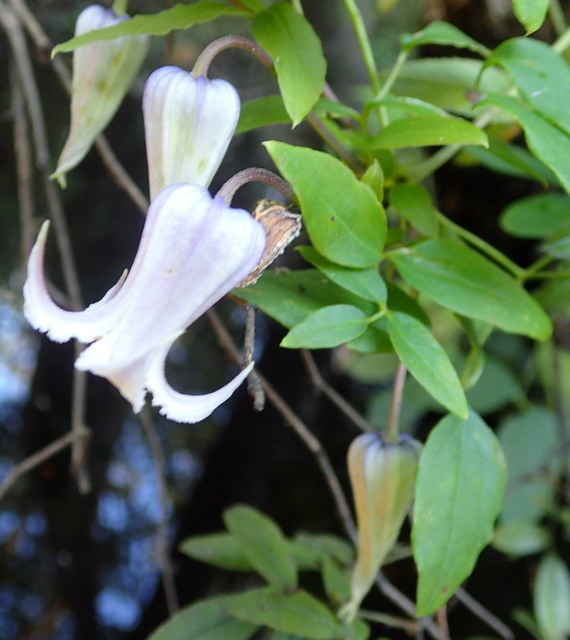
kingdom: Plantae
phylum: Tracheophyta
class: Magnoliopsida
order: Ranunculales
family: Ranunculaceae
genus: Clematis
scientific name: Clematis crispa
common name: Curly clematis
